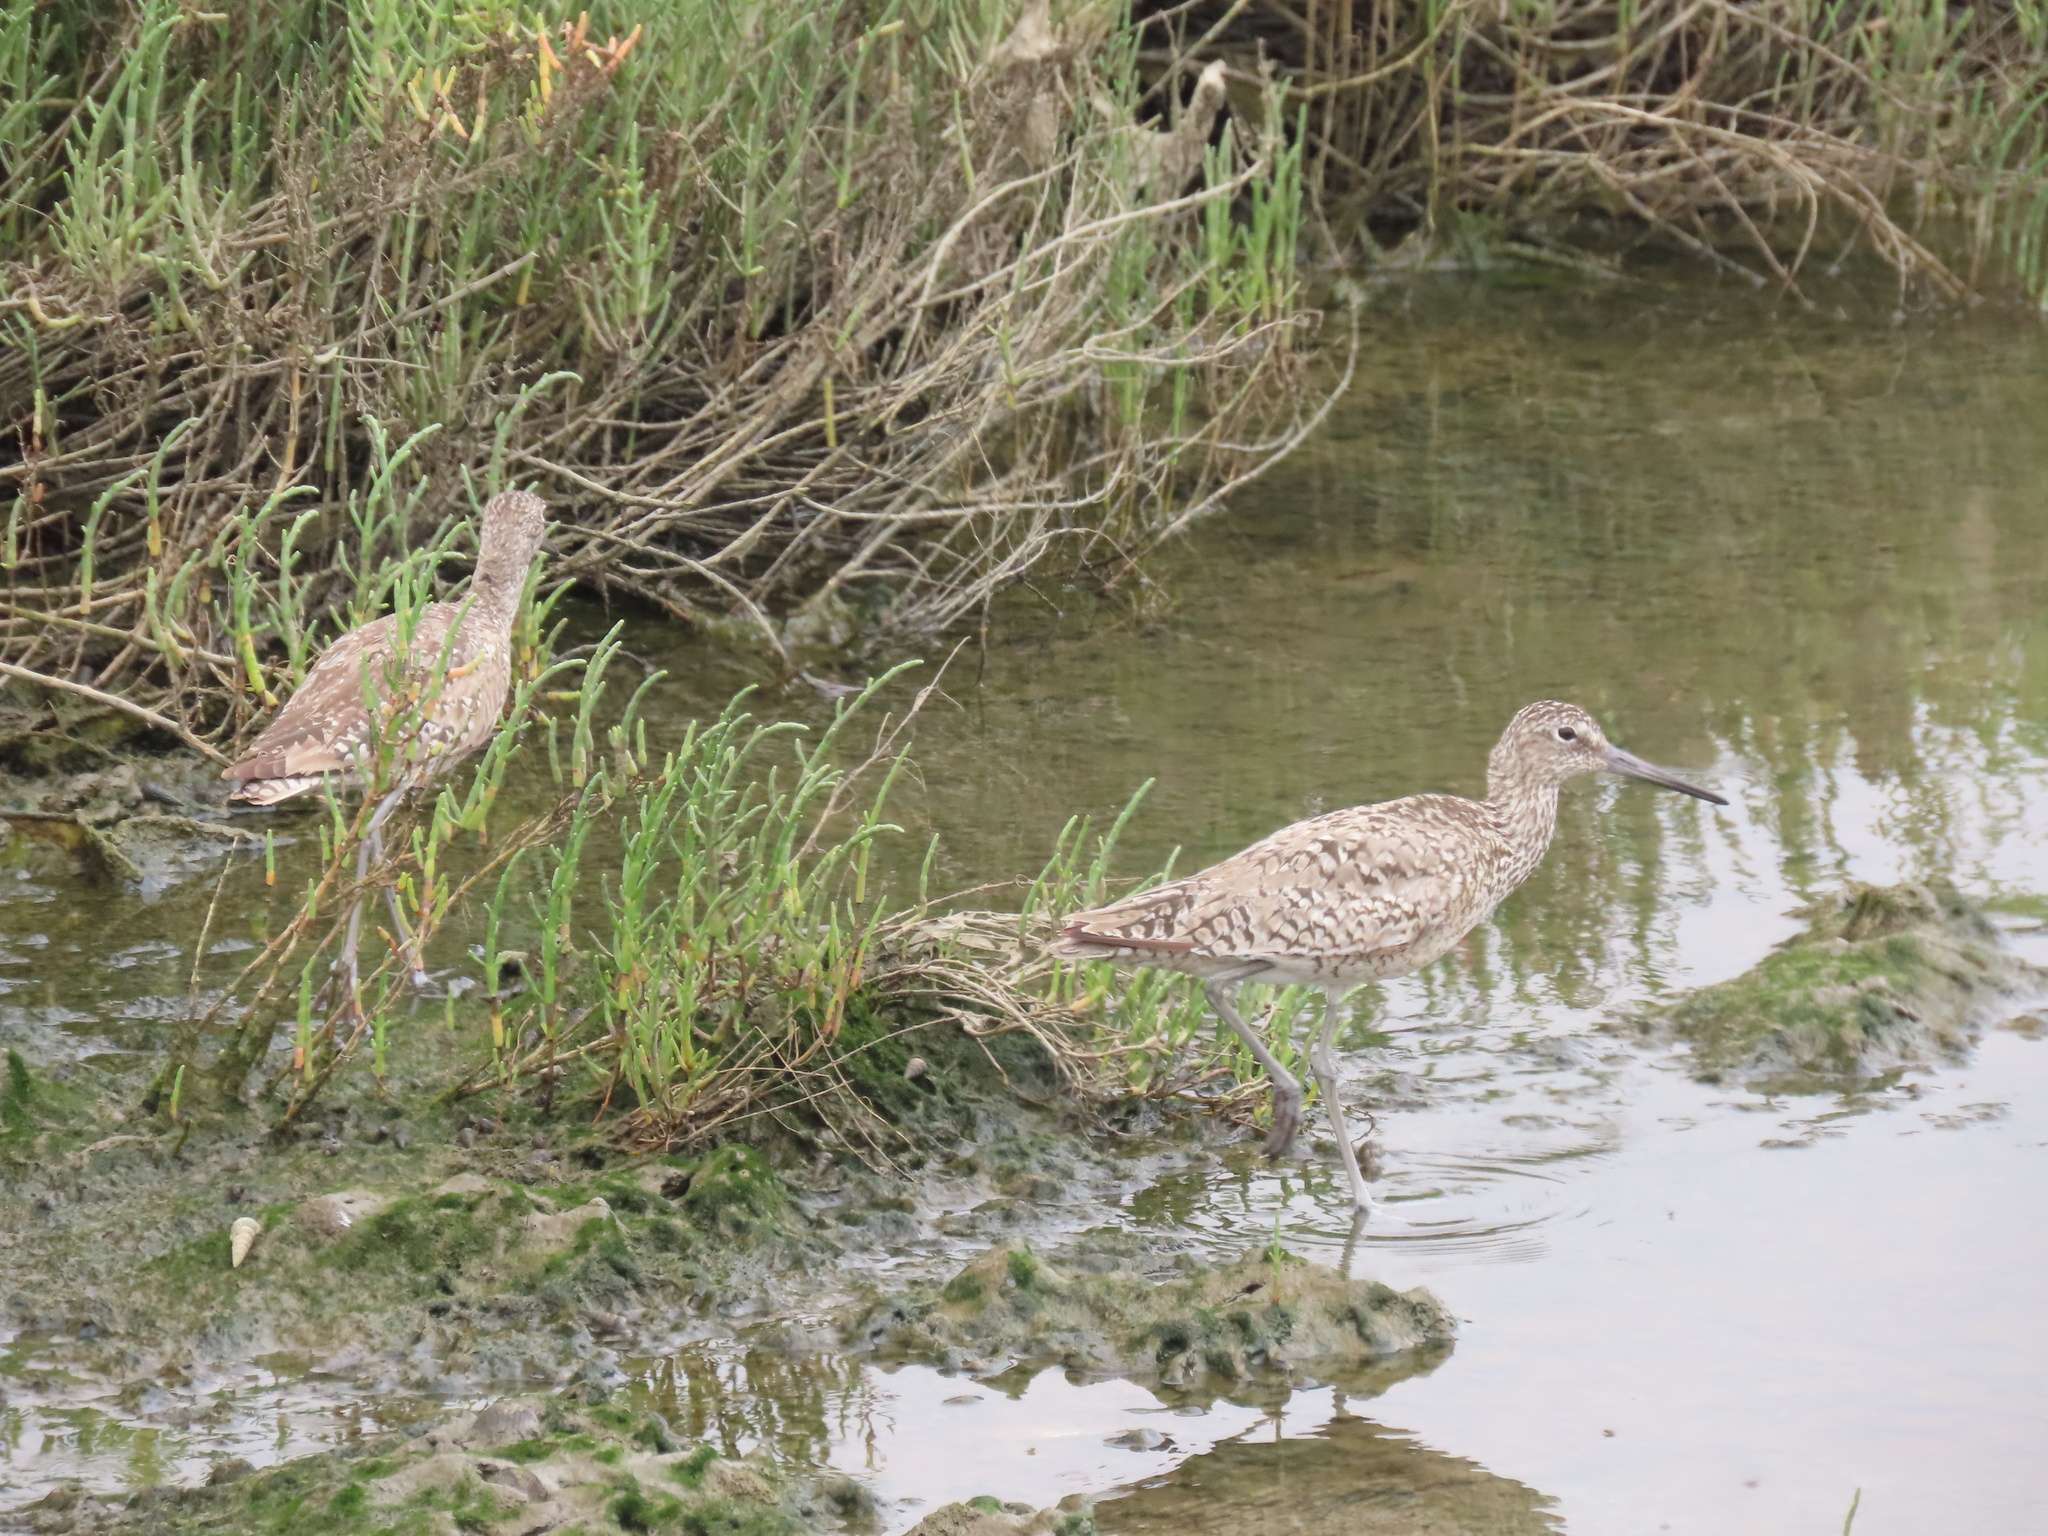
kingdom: Animalia
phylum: Chordata
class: Aves
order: Charadriiformes
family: Scolopacidae
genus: Tringa
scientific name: Tringa semipalmata
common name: Willet
